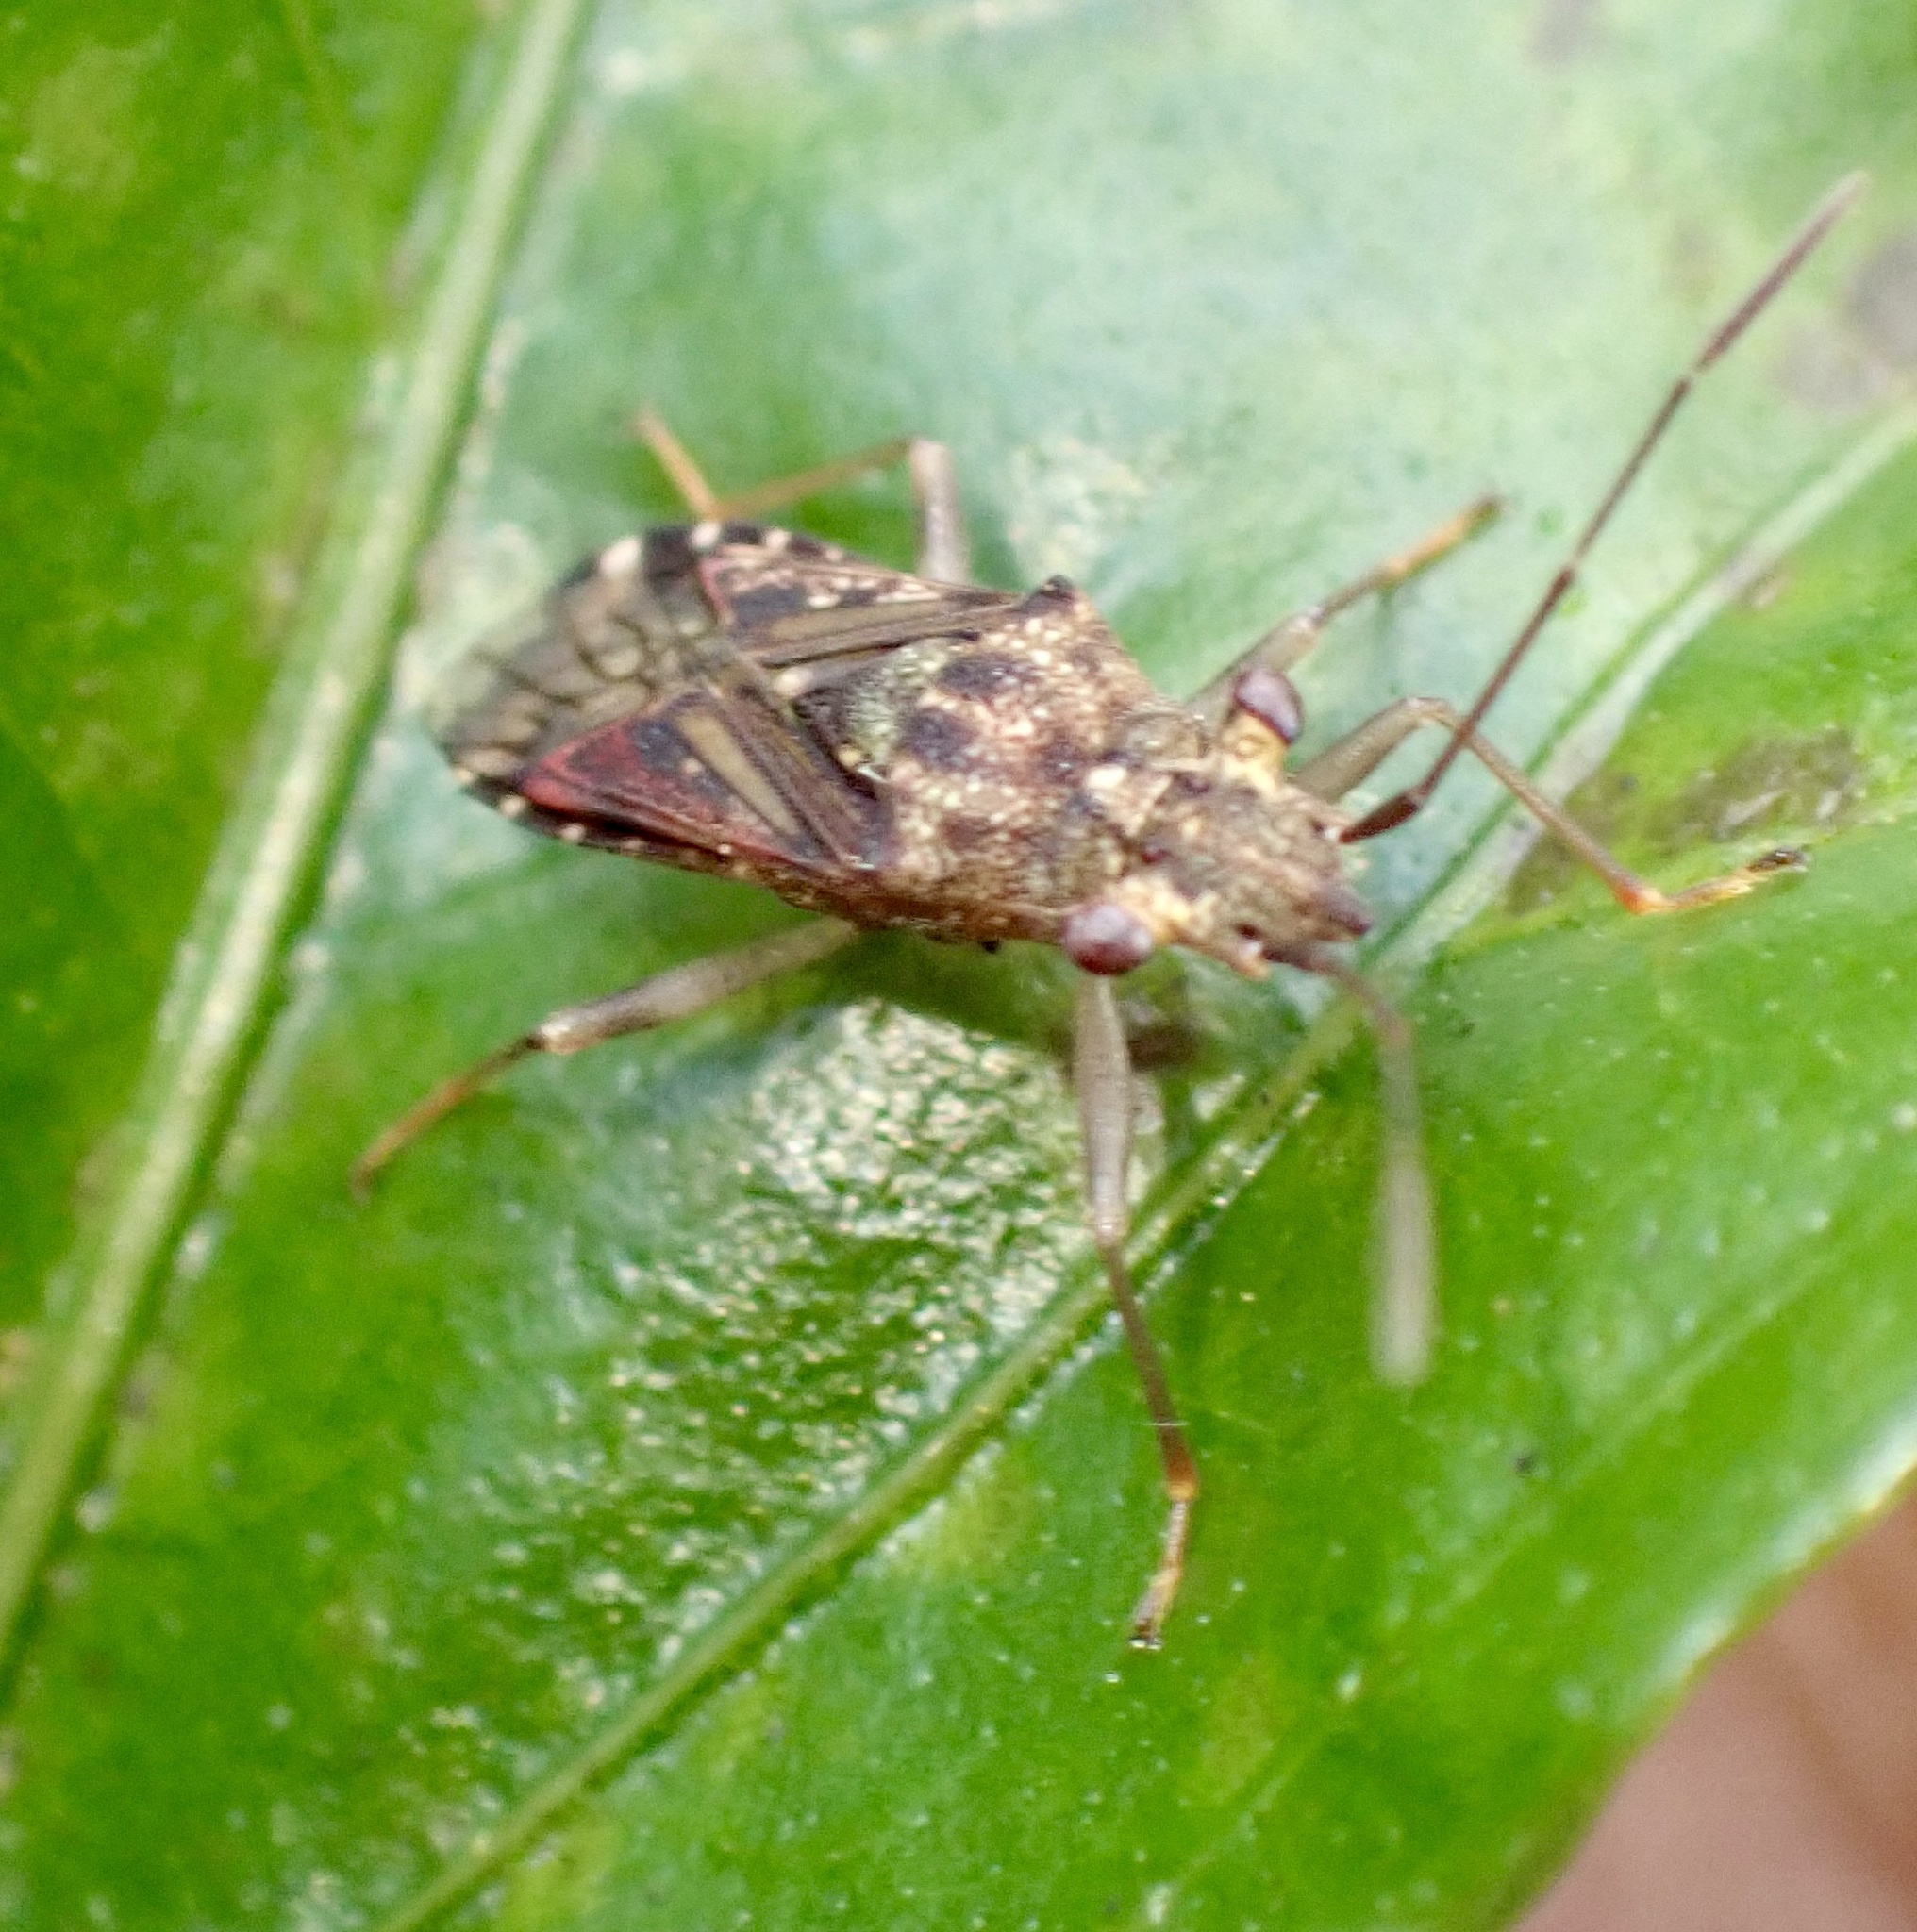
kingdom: Animalia
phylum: Arthropoda
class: Insecta
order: Hemiptera
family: Meschiidae
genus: Heissothignus
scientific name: Heissothignus armatus
